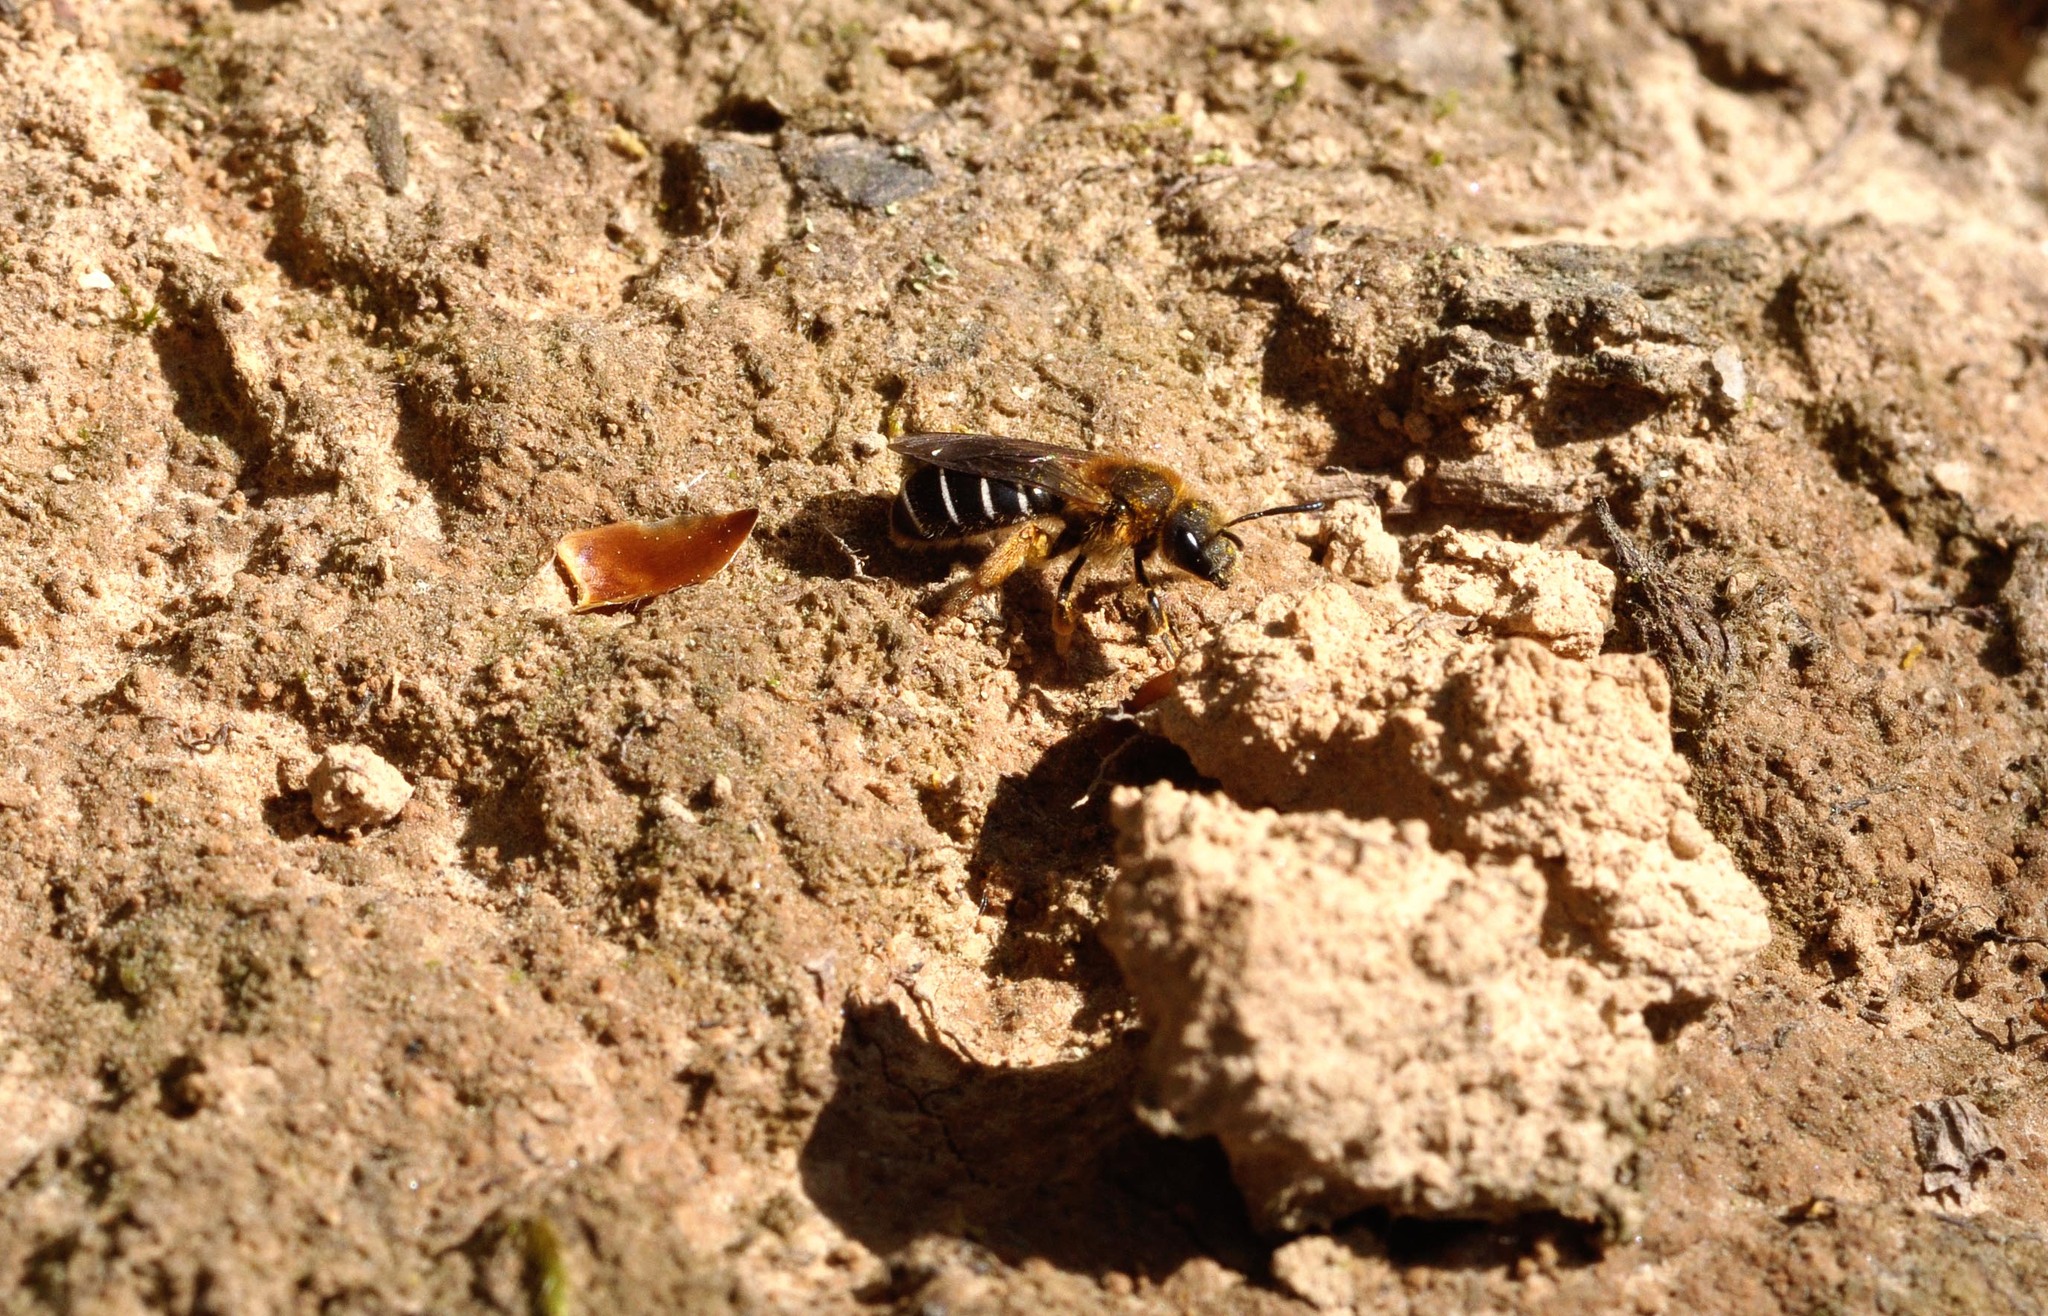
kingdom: Animalia
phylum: Arthropoda
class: Insecta
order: Hymenoptera
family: Halictidae
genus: Halictus
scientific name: Halictus rubicundus
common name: Orange-legged furrow bee
